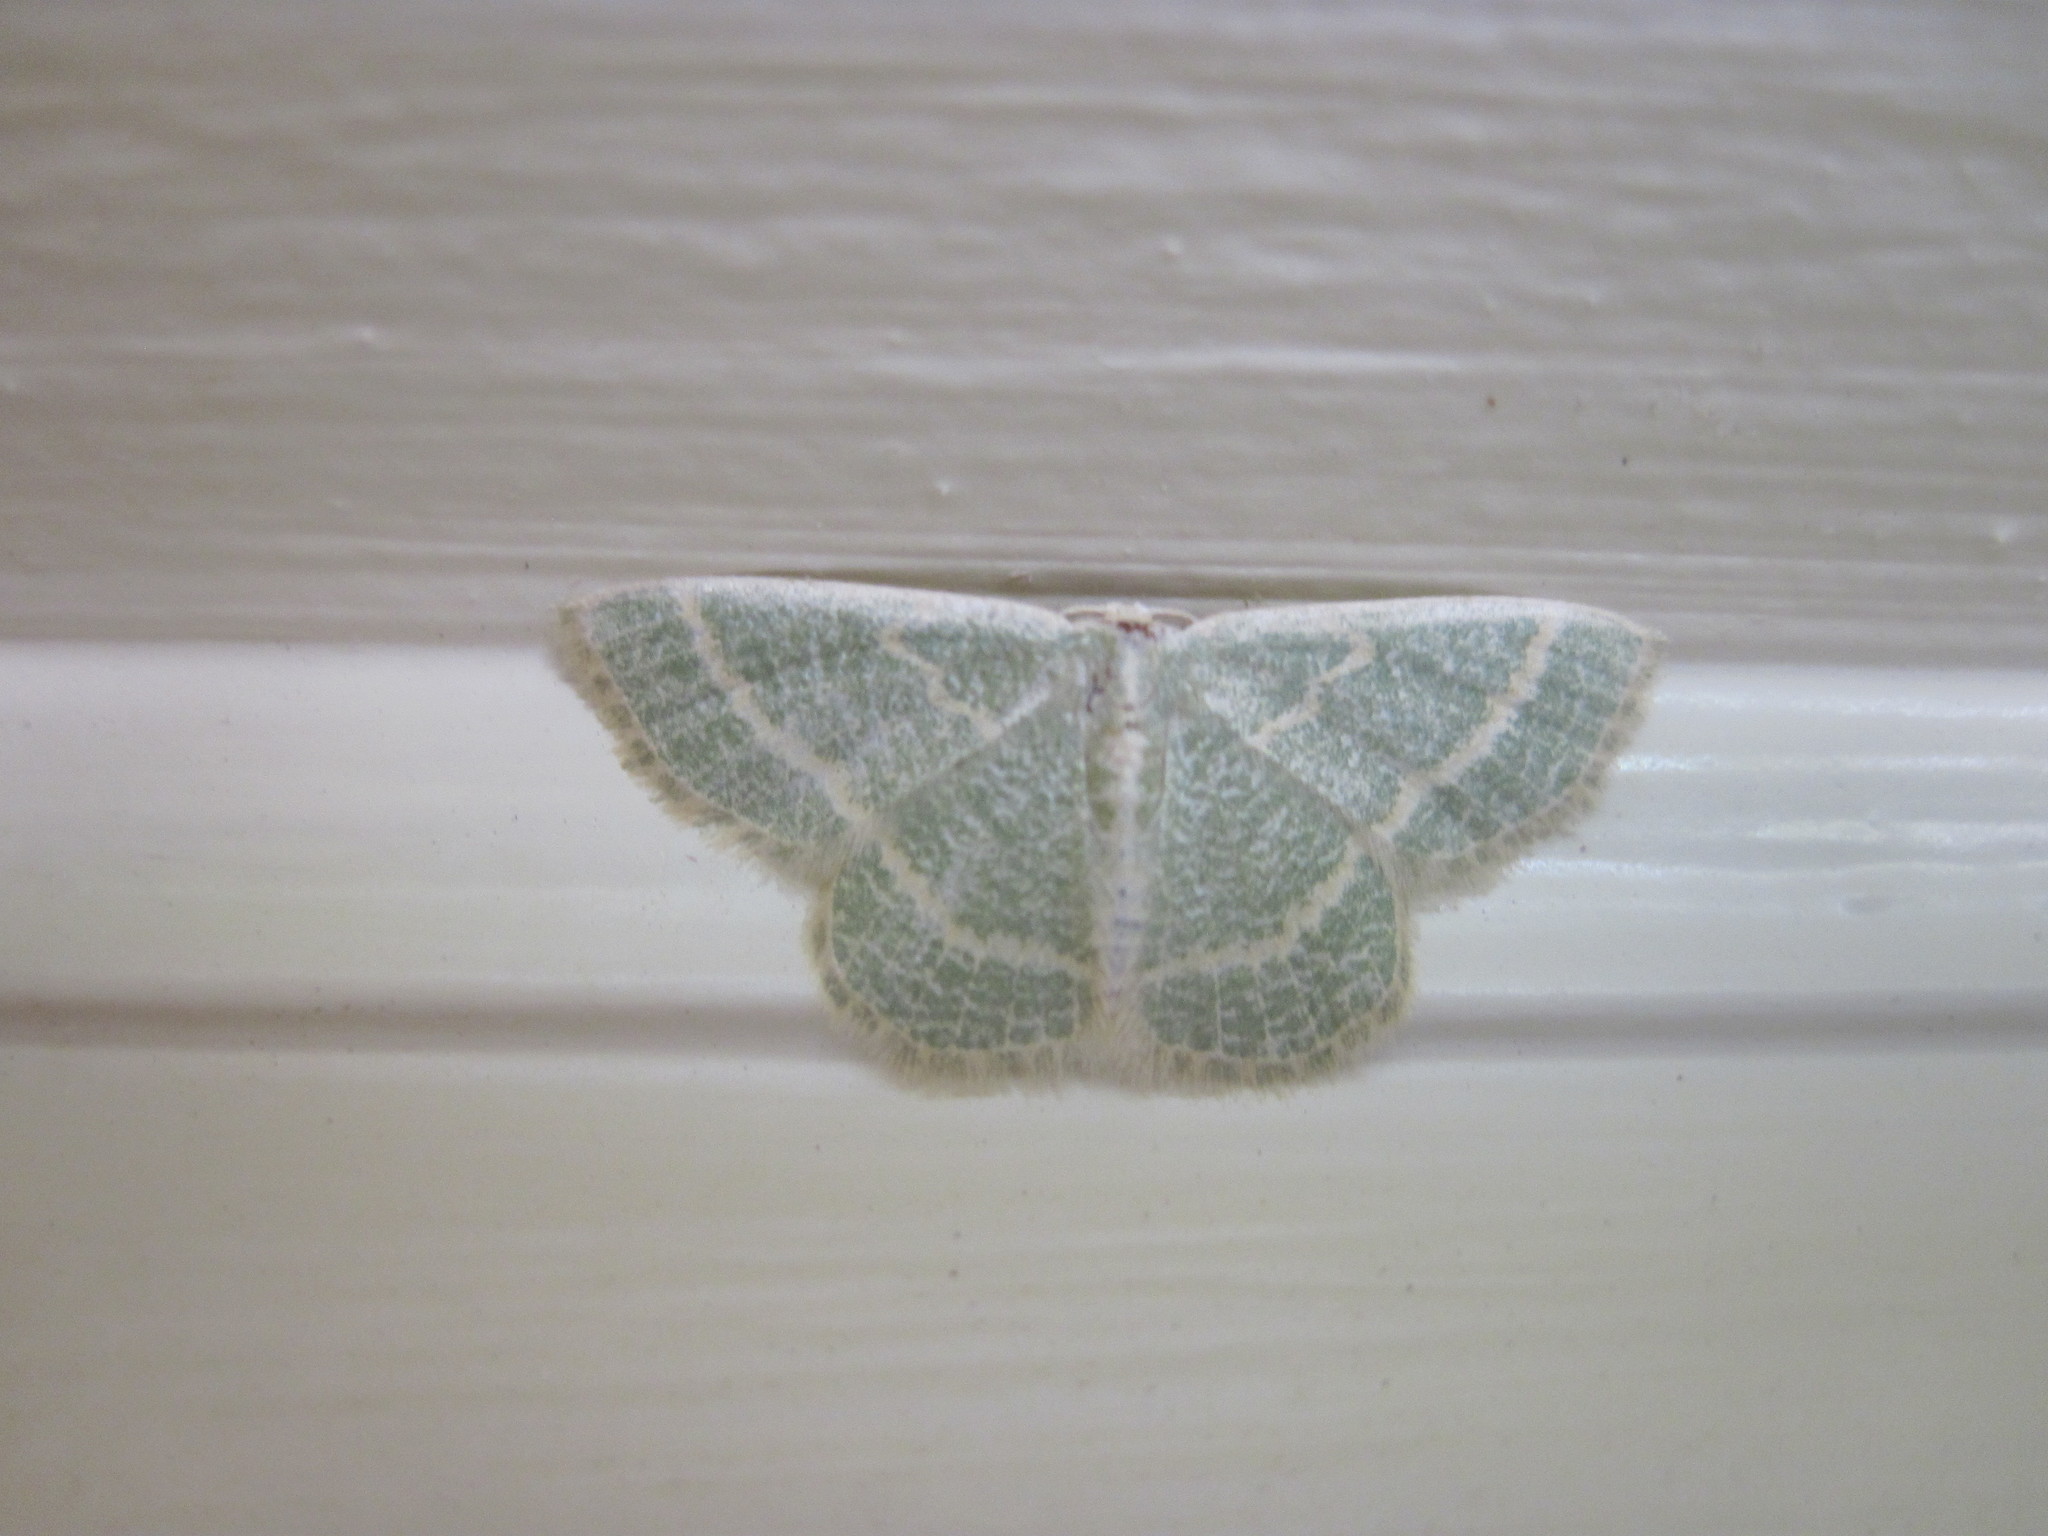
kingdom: Animalia
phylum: Arthropoda
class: Insecta
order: Lepidoptera
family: Geometridae
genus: Chlorochlamys
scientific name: Chlorochlamys chloroleucaria
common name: Blackberry looper
